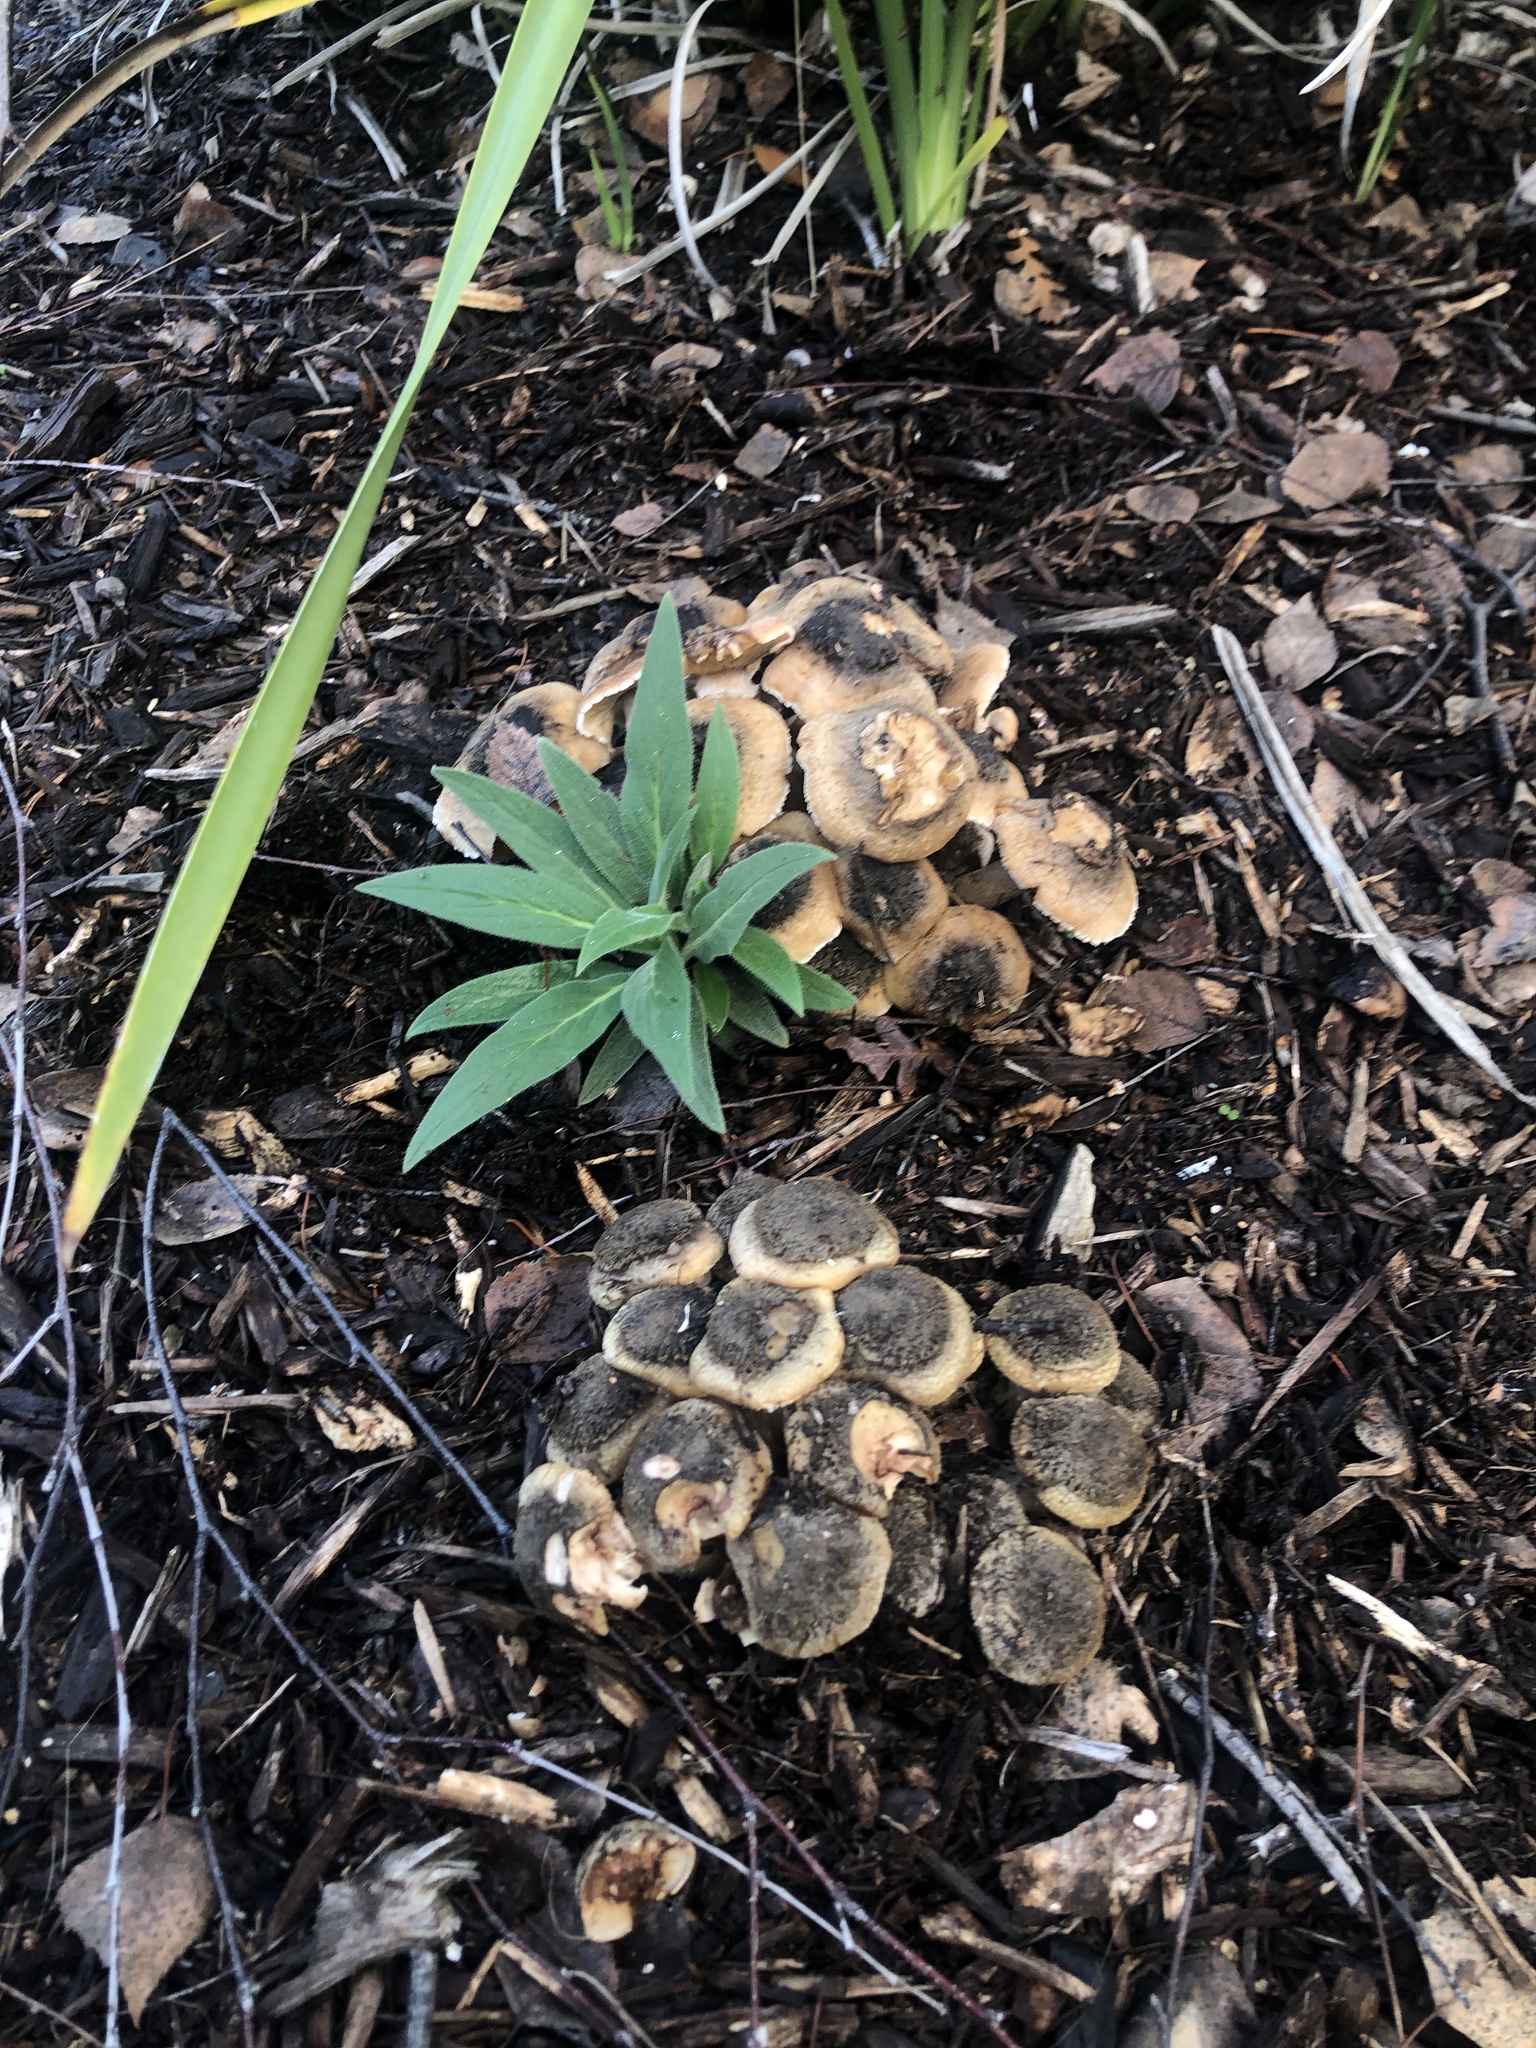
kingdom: Fungi
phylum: Basidiomycota
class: Agaricomycetes
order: Agaricales
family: Physalacriaceae
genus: Armillaria
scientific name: Armillaria mellea
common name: Honey fungus
